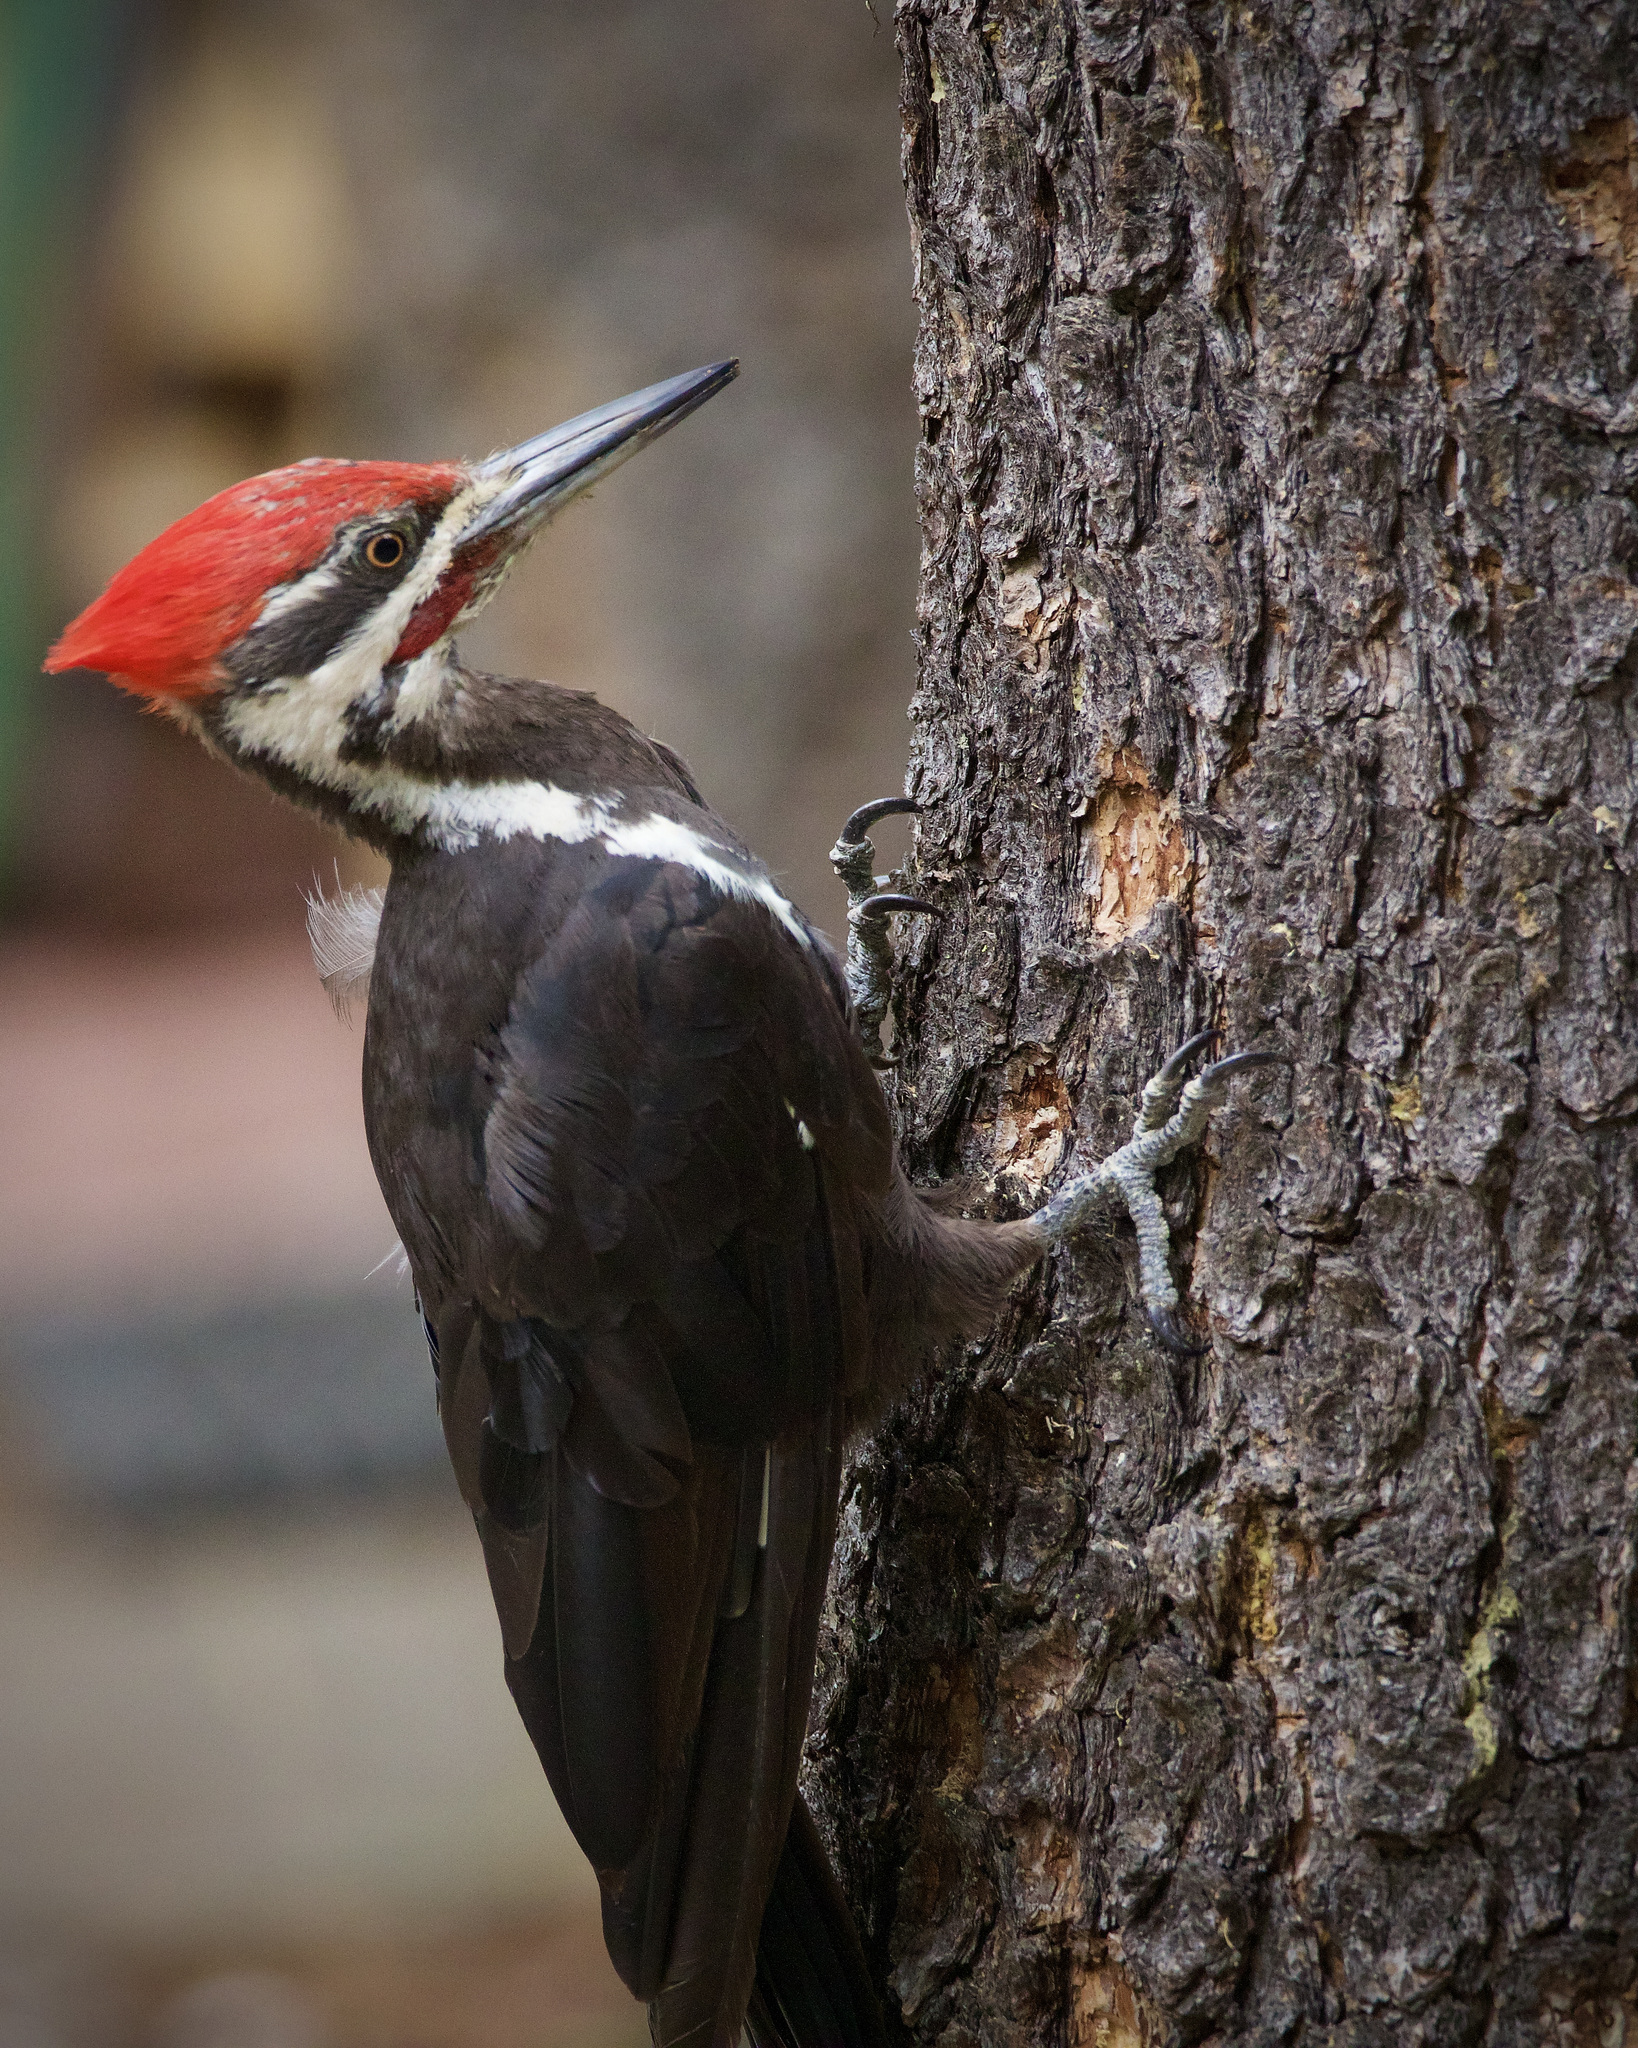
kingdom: Animalia
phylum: Chordata
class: Aves
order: Piciformes
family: Picidae
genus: Dryocopus
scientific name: Dryocopus pileatus
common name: Pileated woodpecker
